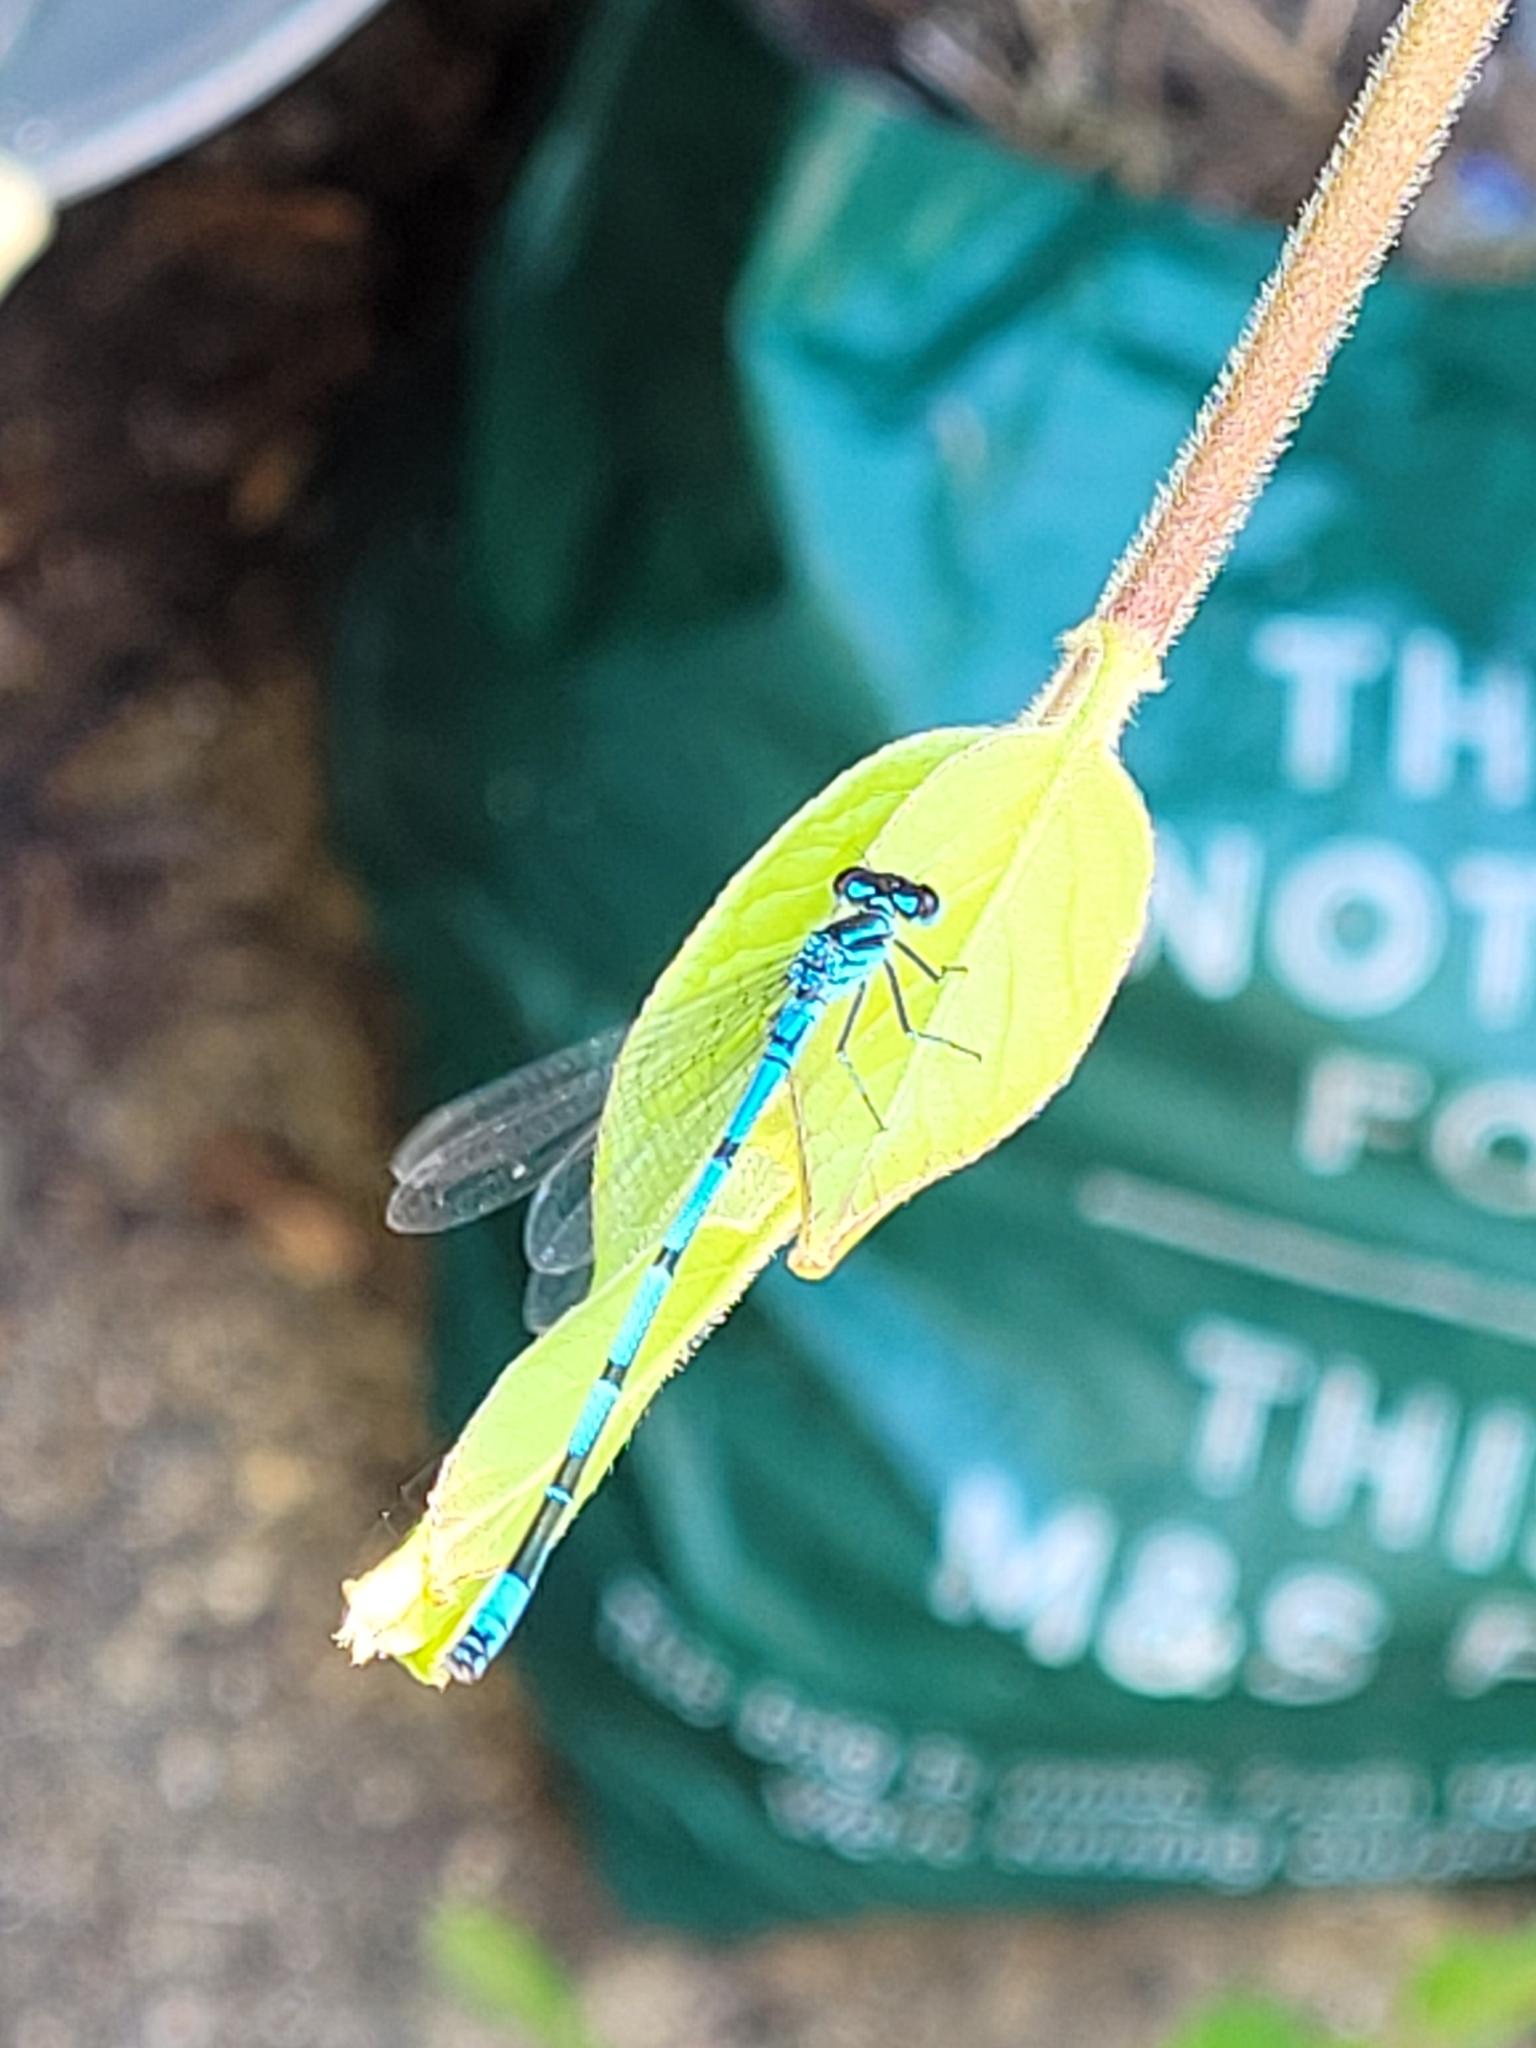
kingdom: Animalia
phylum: Arthropoda
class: Insecta
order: Odonata
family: Coenagrionidae
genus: Coenagrion
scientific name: Coenagrion puella
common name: Azure damselfly
